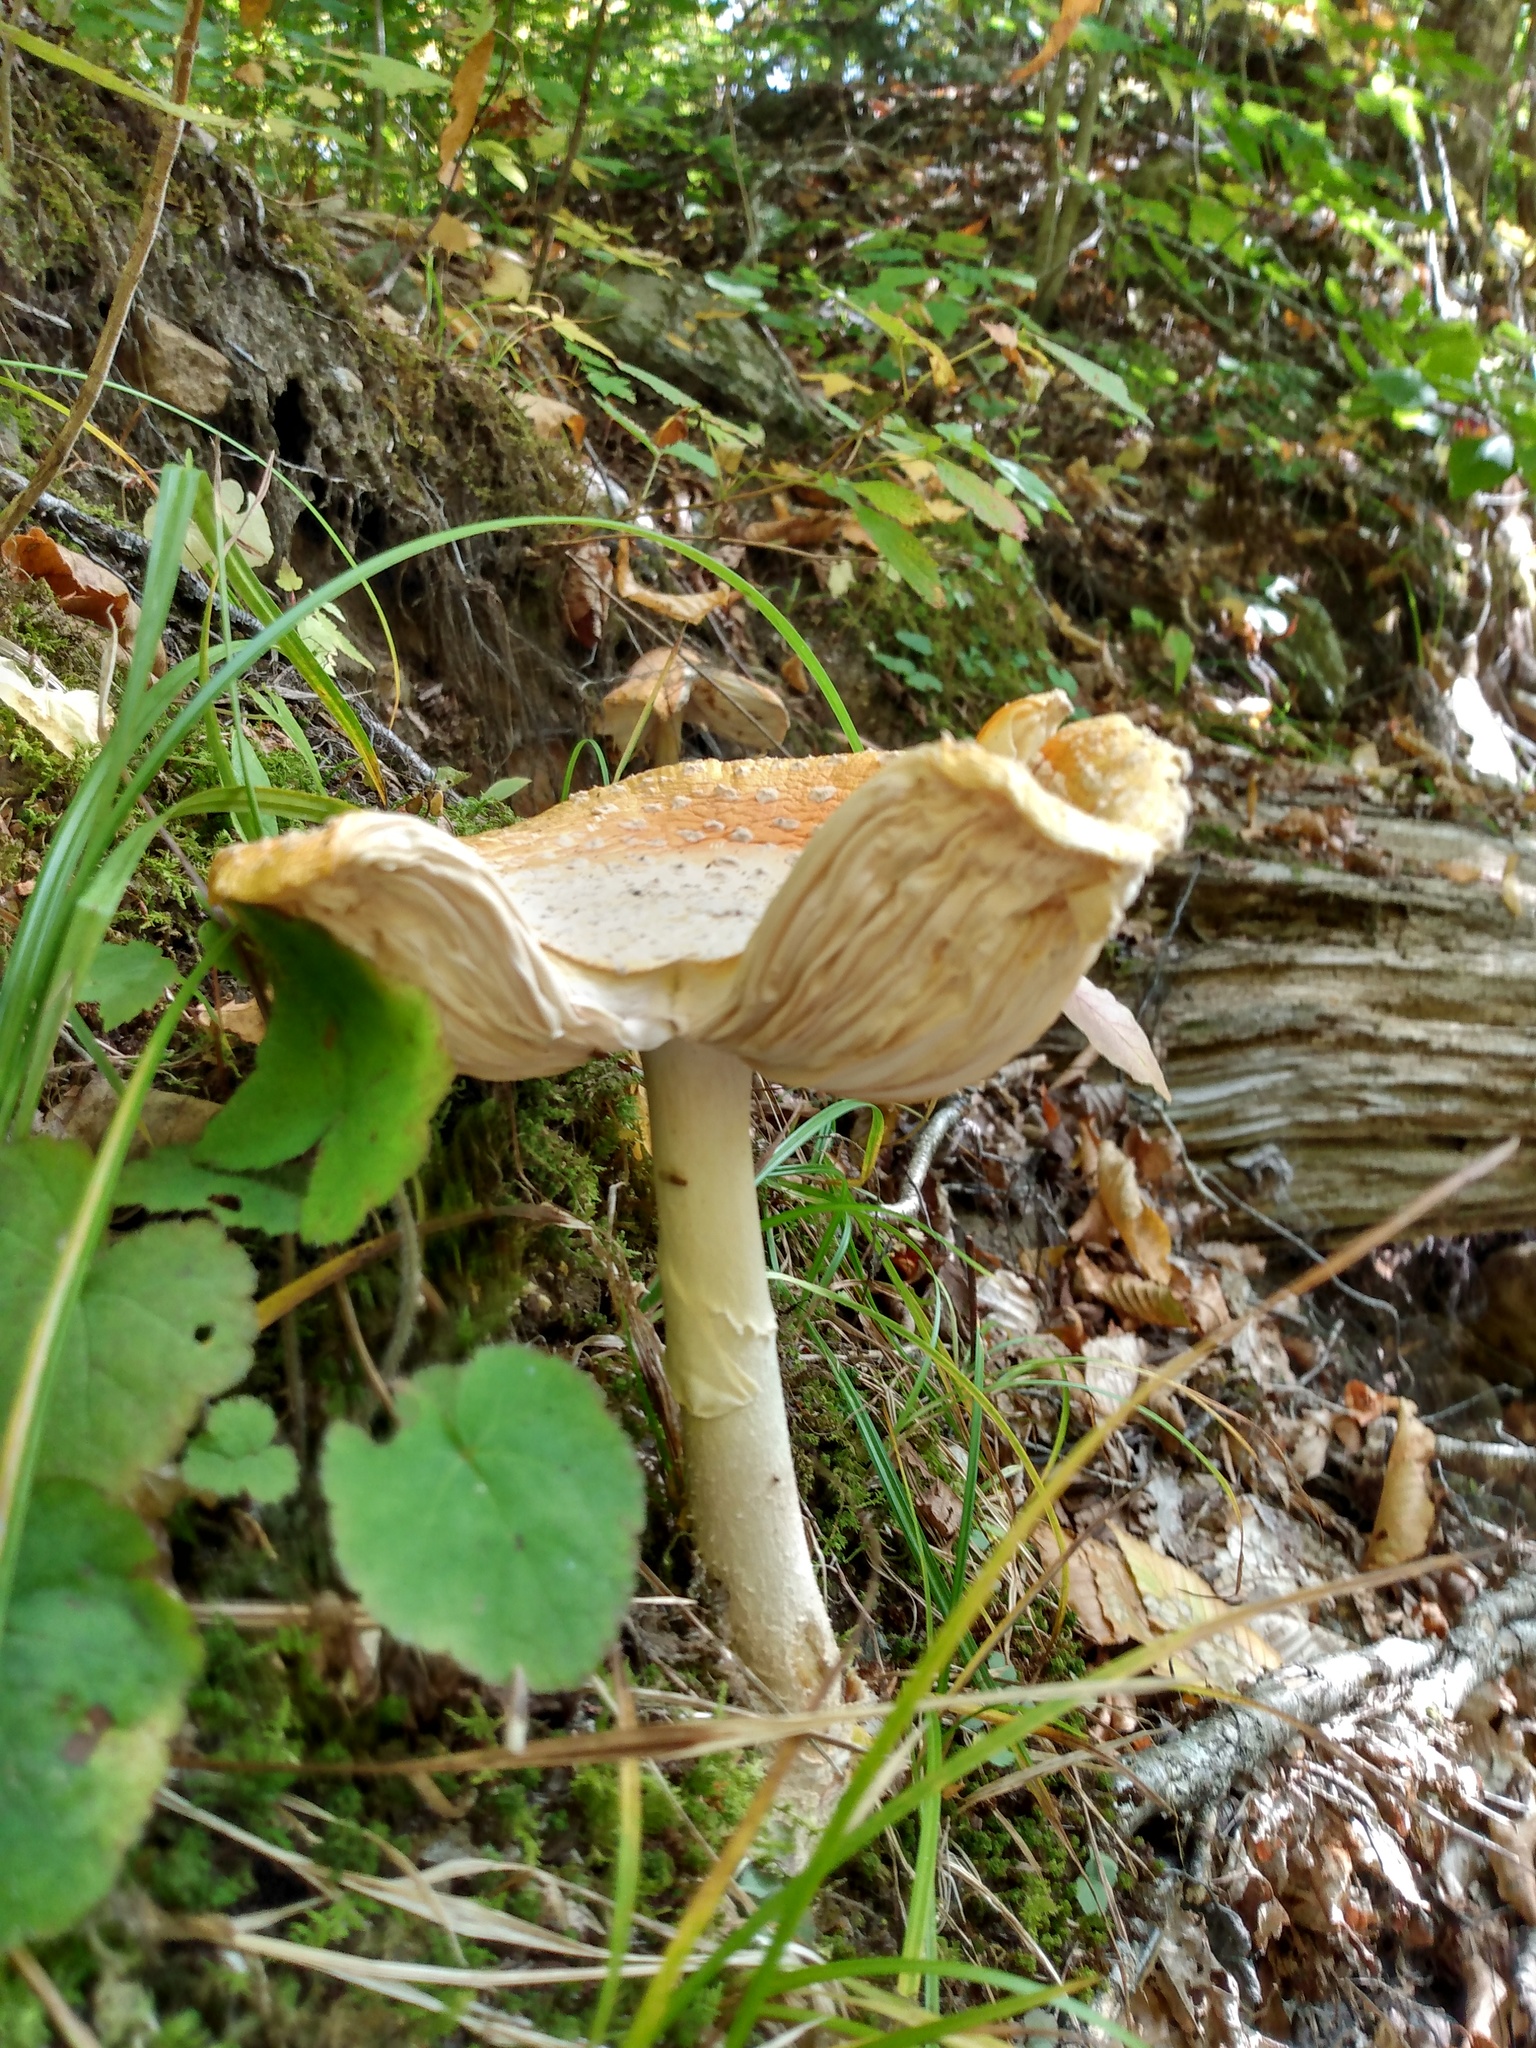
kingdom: Fungi
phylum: Basidiomycota
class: Agaricomycetes
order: Agaricales
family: Amanitaceae
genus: Amanita
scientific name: Amanita muscaria
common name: Fly agaric
